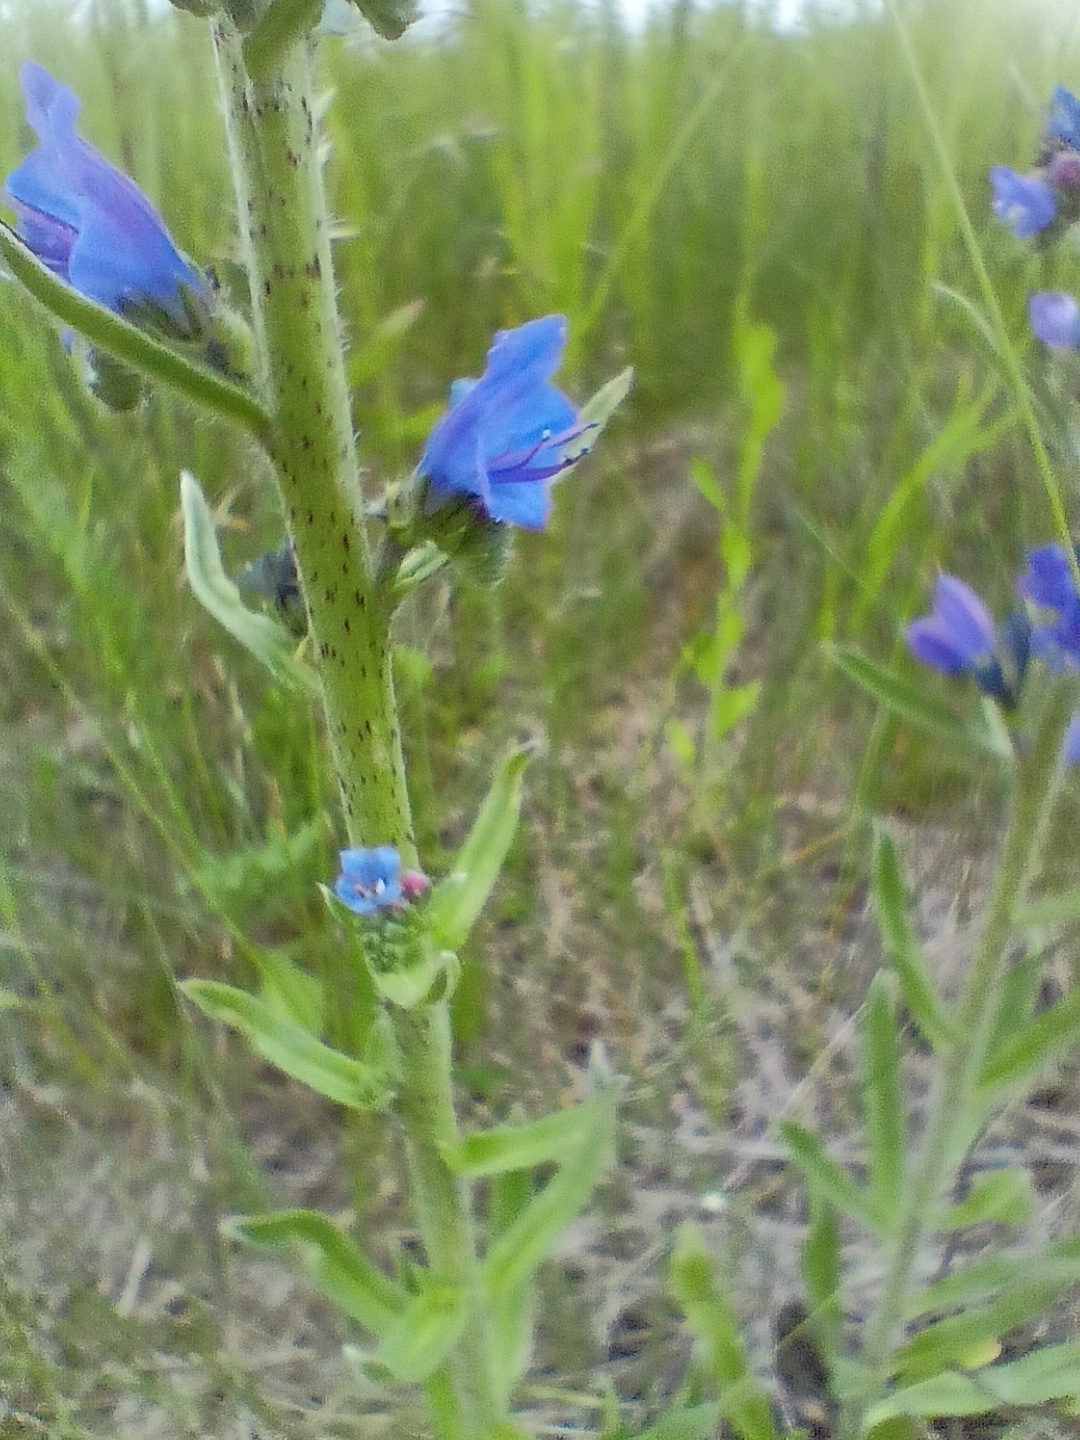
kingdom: Plantae
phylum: Tracheophyta
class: Magnoliopsida
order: Boraginales
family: Boraginaceae
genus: Echium
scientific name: Echium vulgare
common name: Common viper's bugloss
